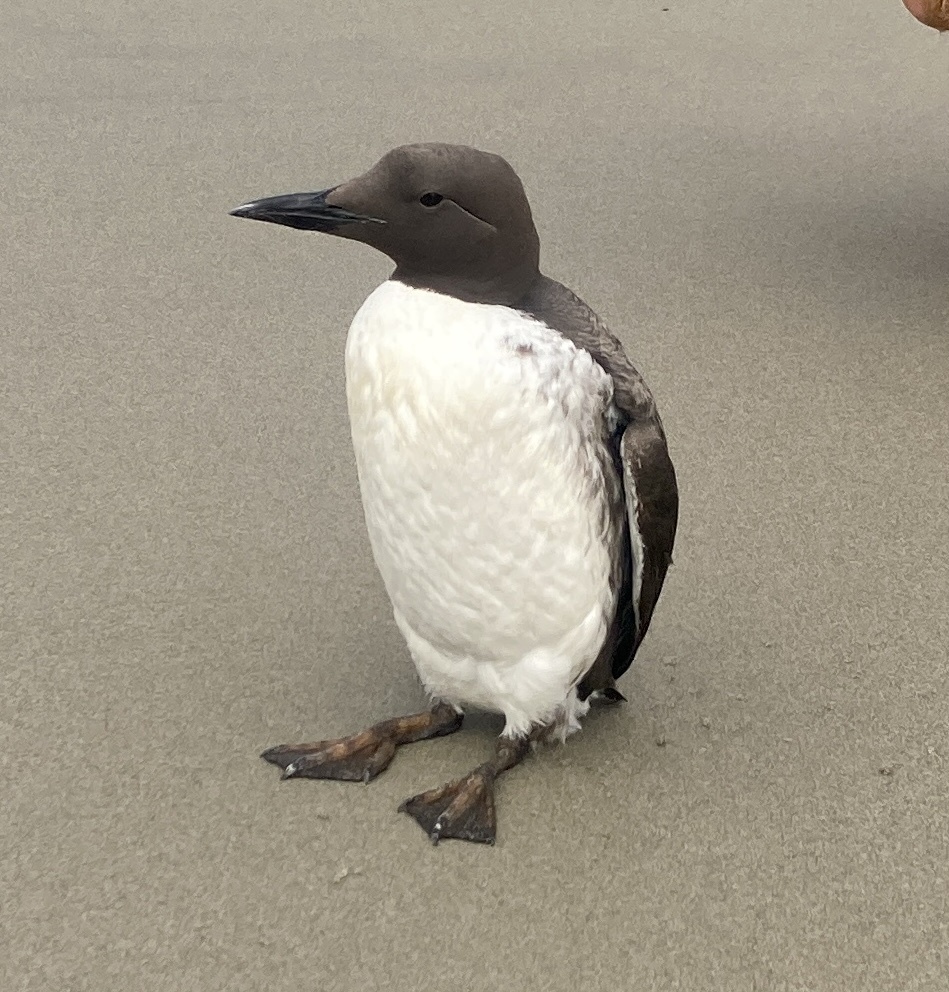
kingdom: Animalia
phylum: Chordata
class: Aves
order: Charadriiformes
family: Alcidae
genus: Uria
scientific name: Uria aalge
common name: Common murre
